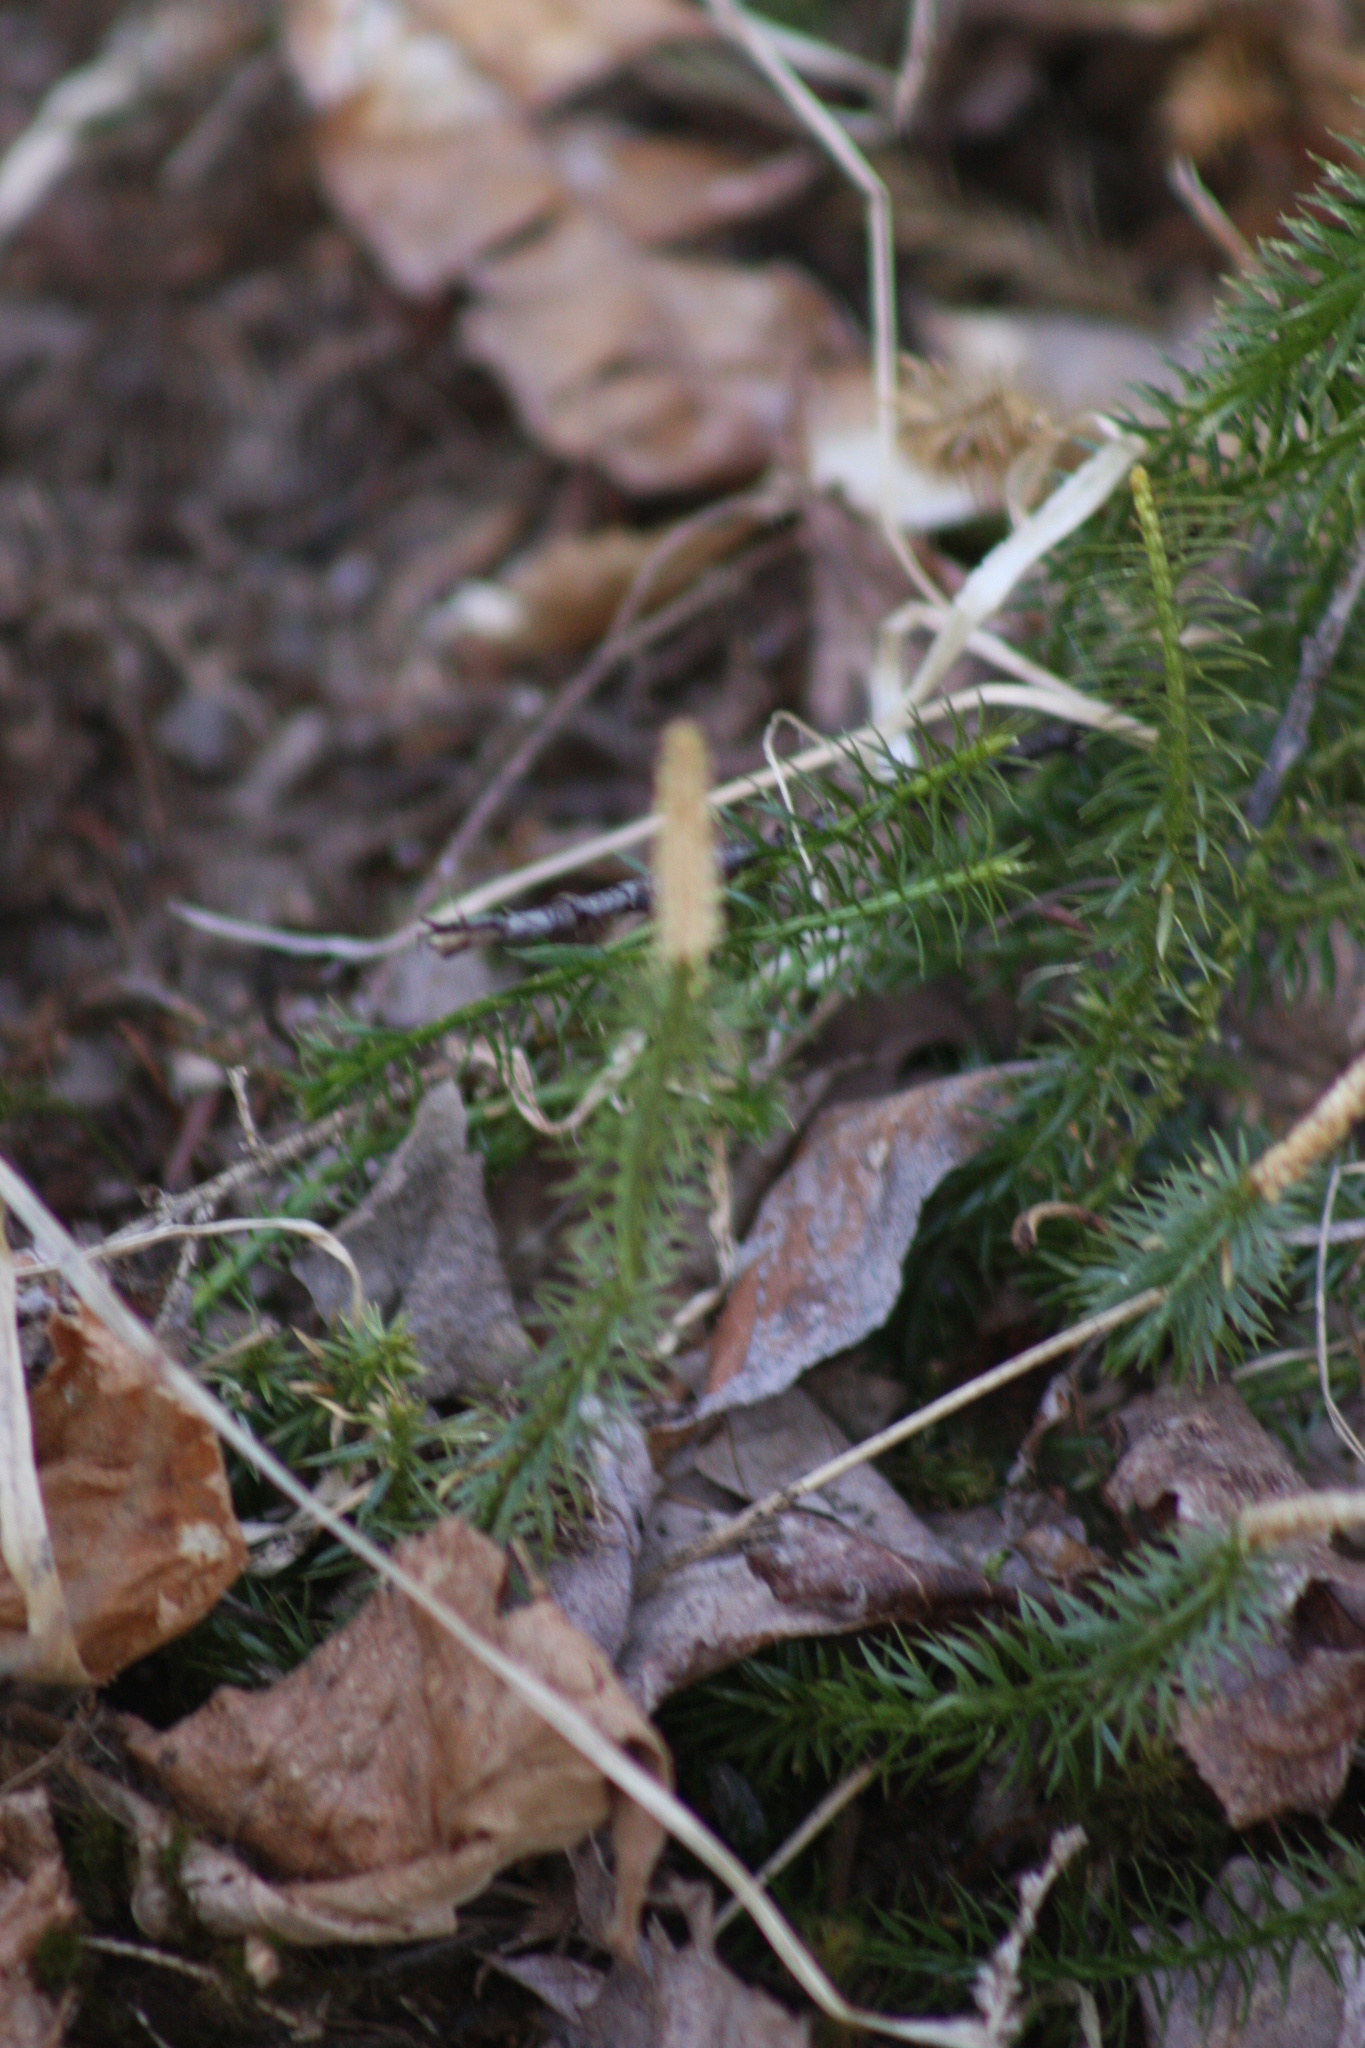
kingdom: Plantae
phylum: Tracheophyta
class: Lycopodiopsida
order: Lycopodiales
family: Lycopodiaceae
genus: Spinulum
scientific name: Spinulum annotinum
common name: Interrupted club-moss
